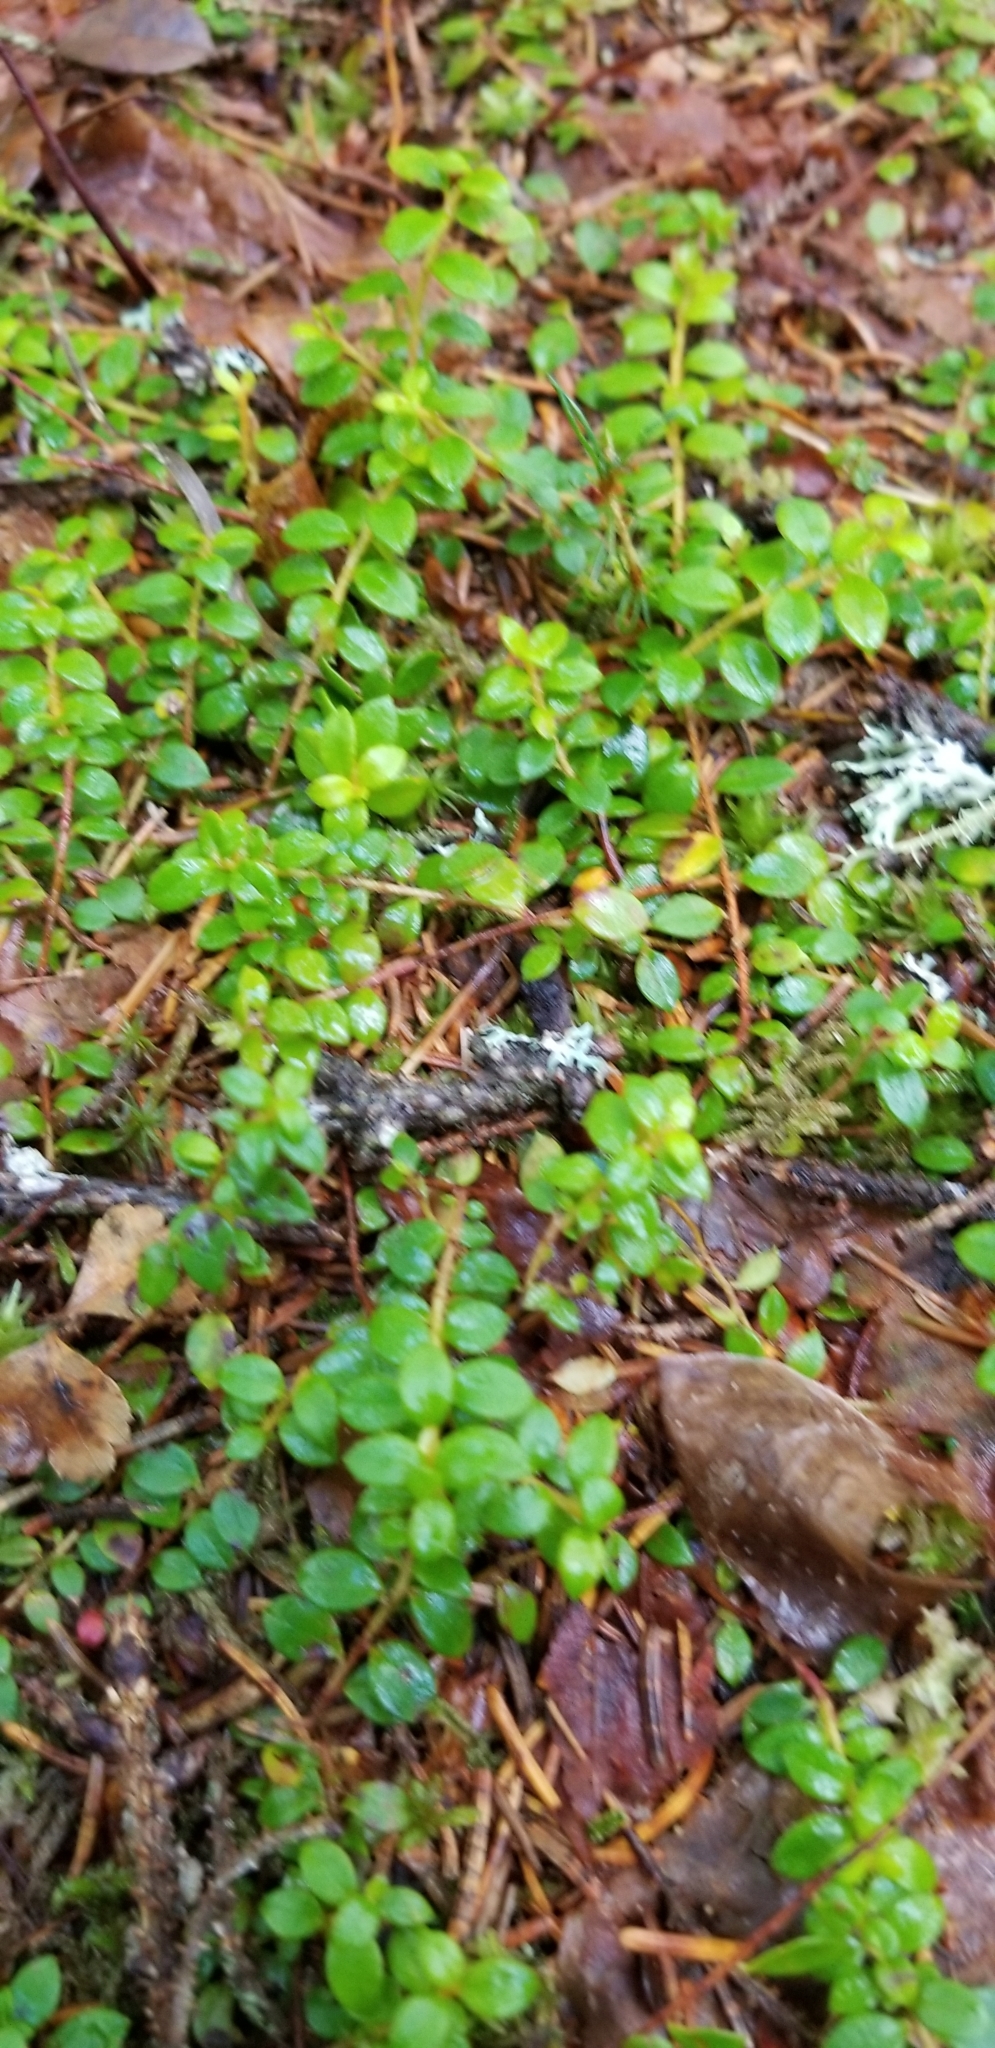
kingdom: Plantae
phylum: Tracheophyta
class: Magnoliopsida
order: Ericales
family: Ericaceae
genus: Gaultheria
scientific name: Gaultheria hispidula
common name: Cancer wintergreen
